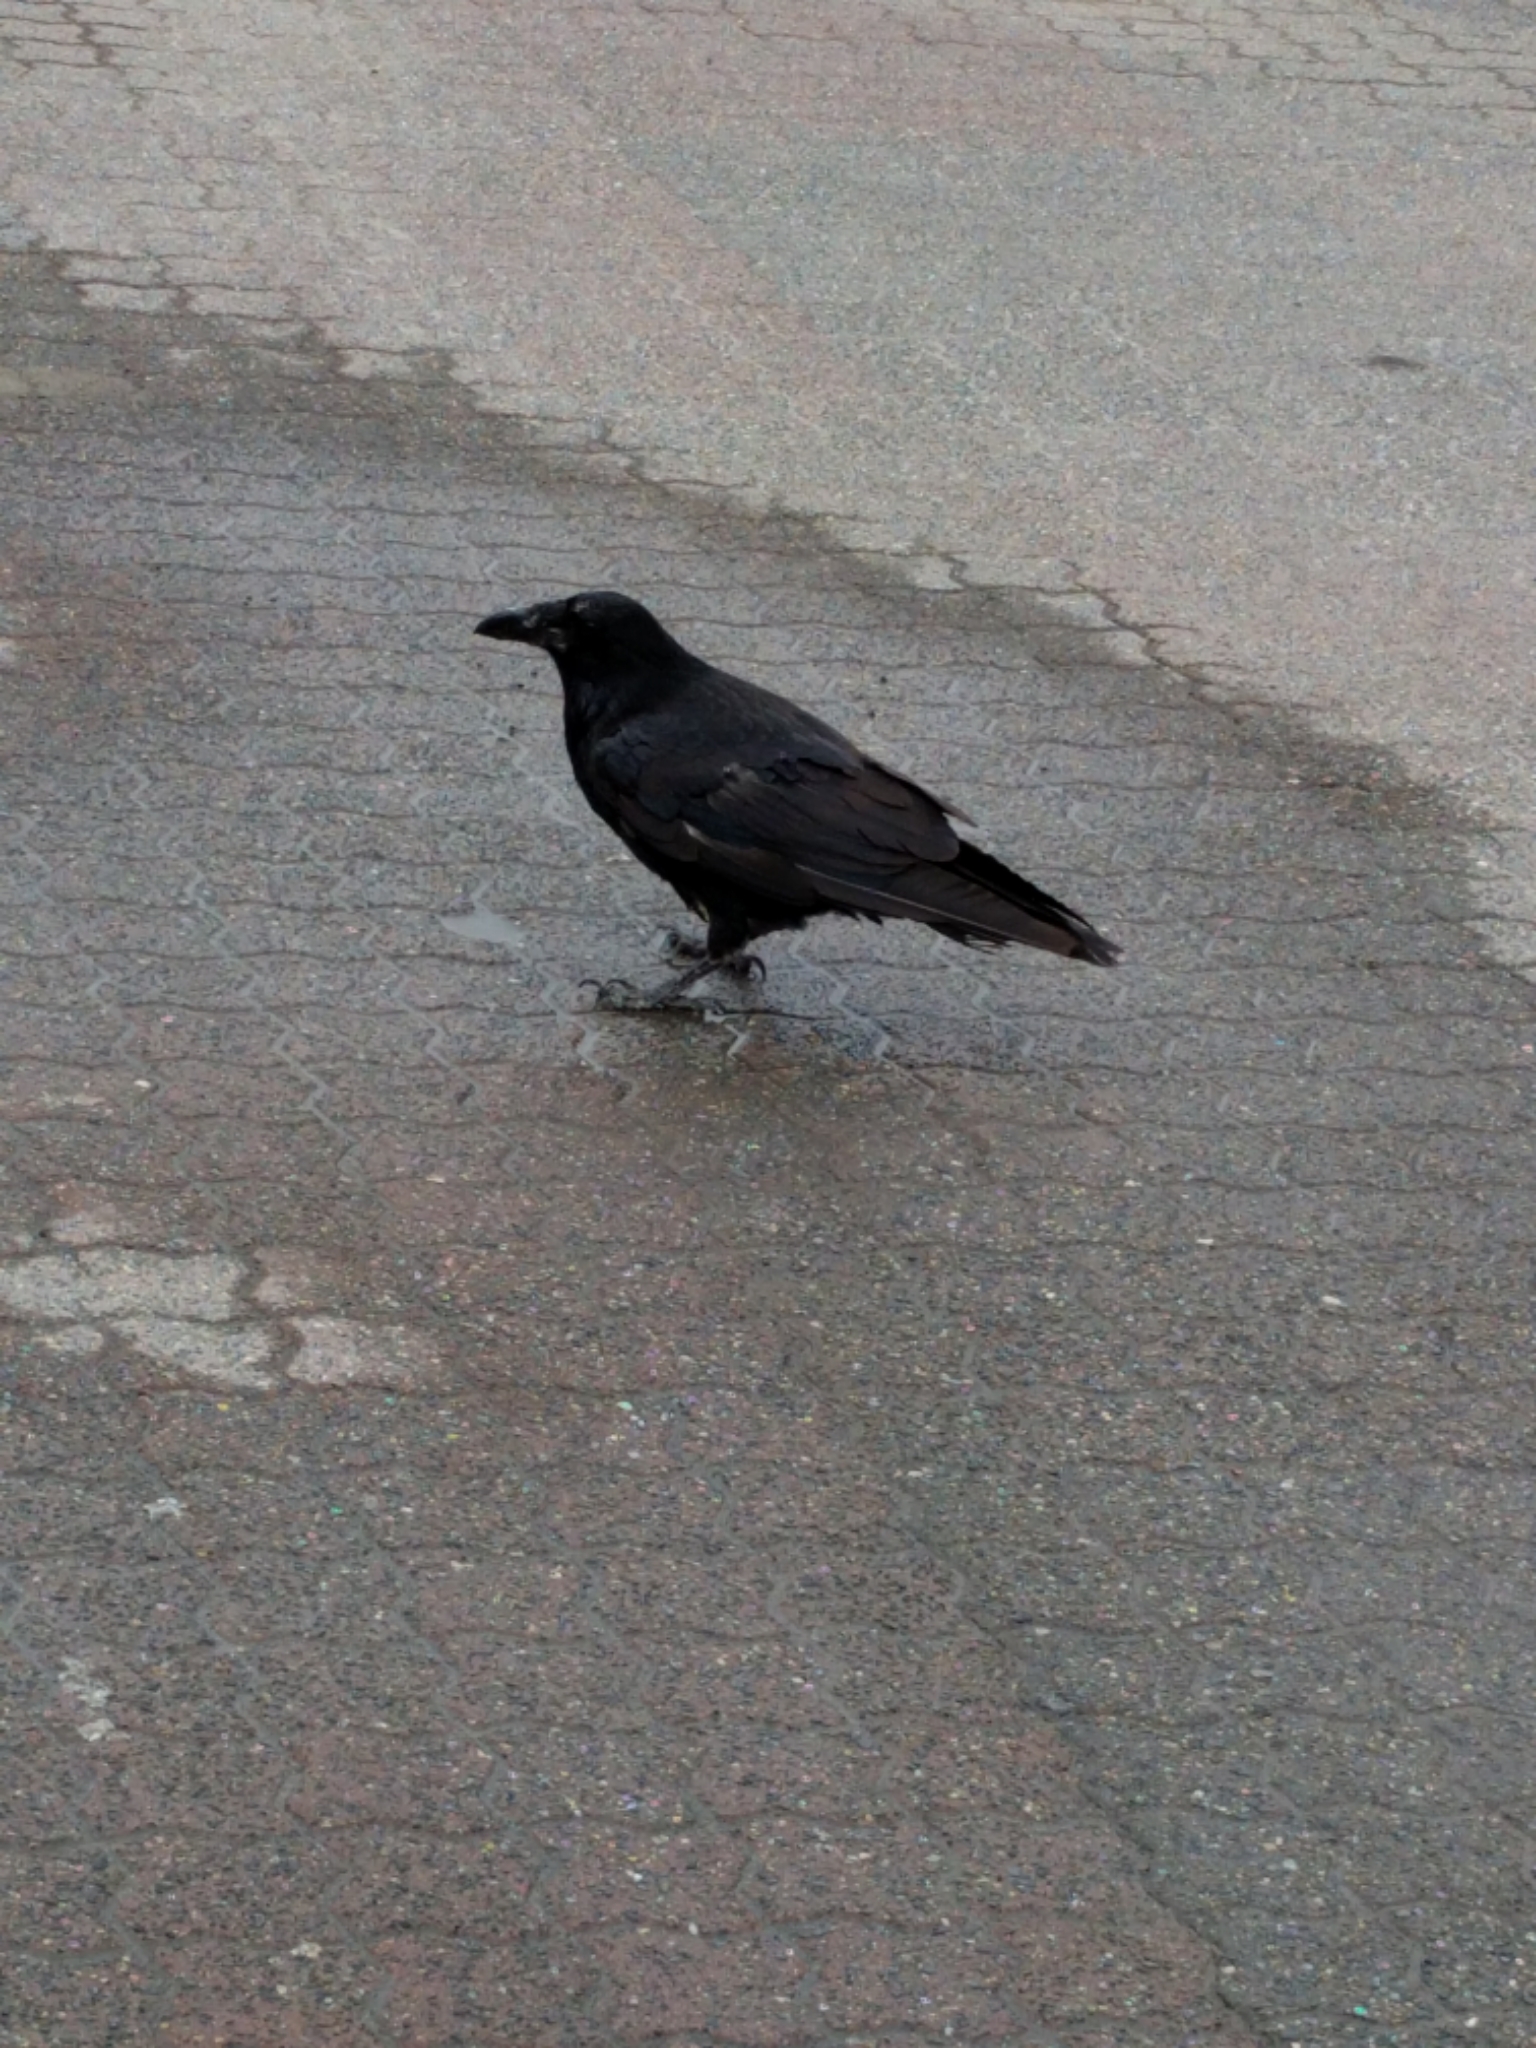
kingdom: Animalia
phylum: Chordata
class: Aves
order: Passeriformes
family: Corvidae
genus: Corvus
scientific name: Corvus corax
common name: Common raven
